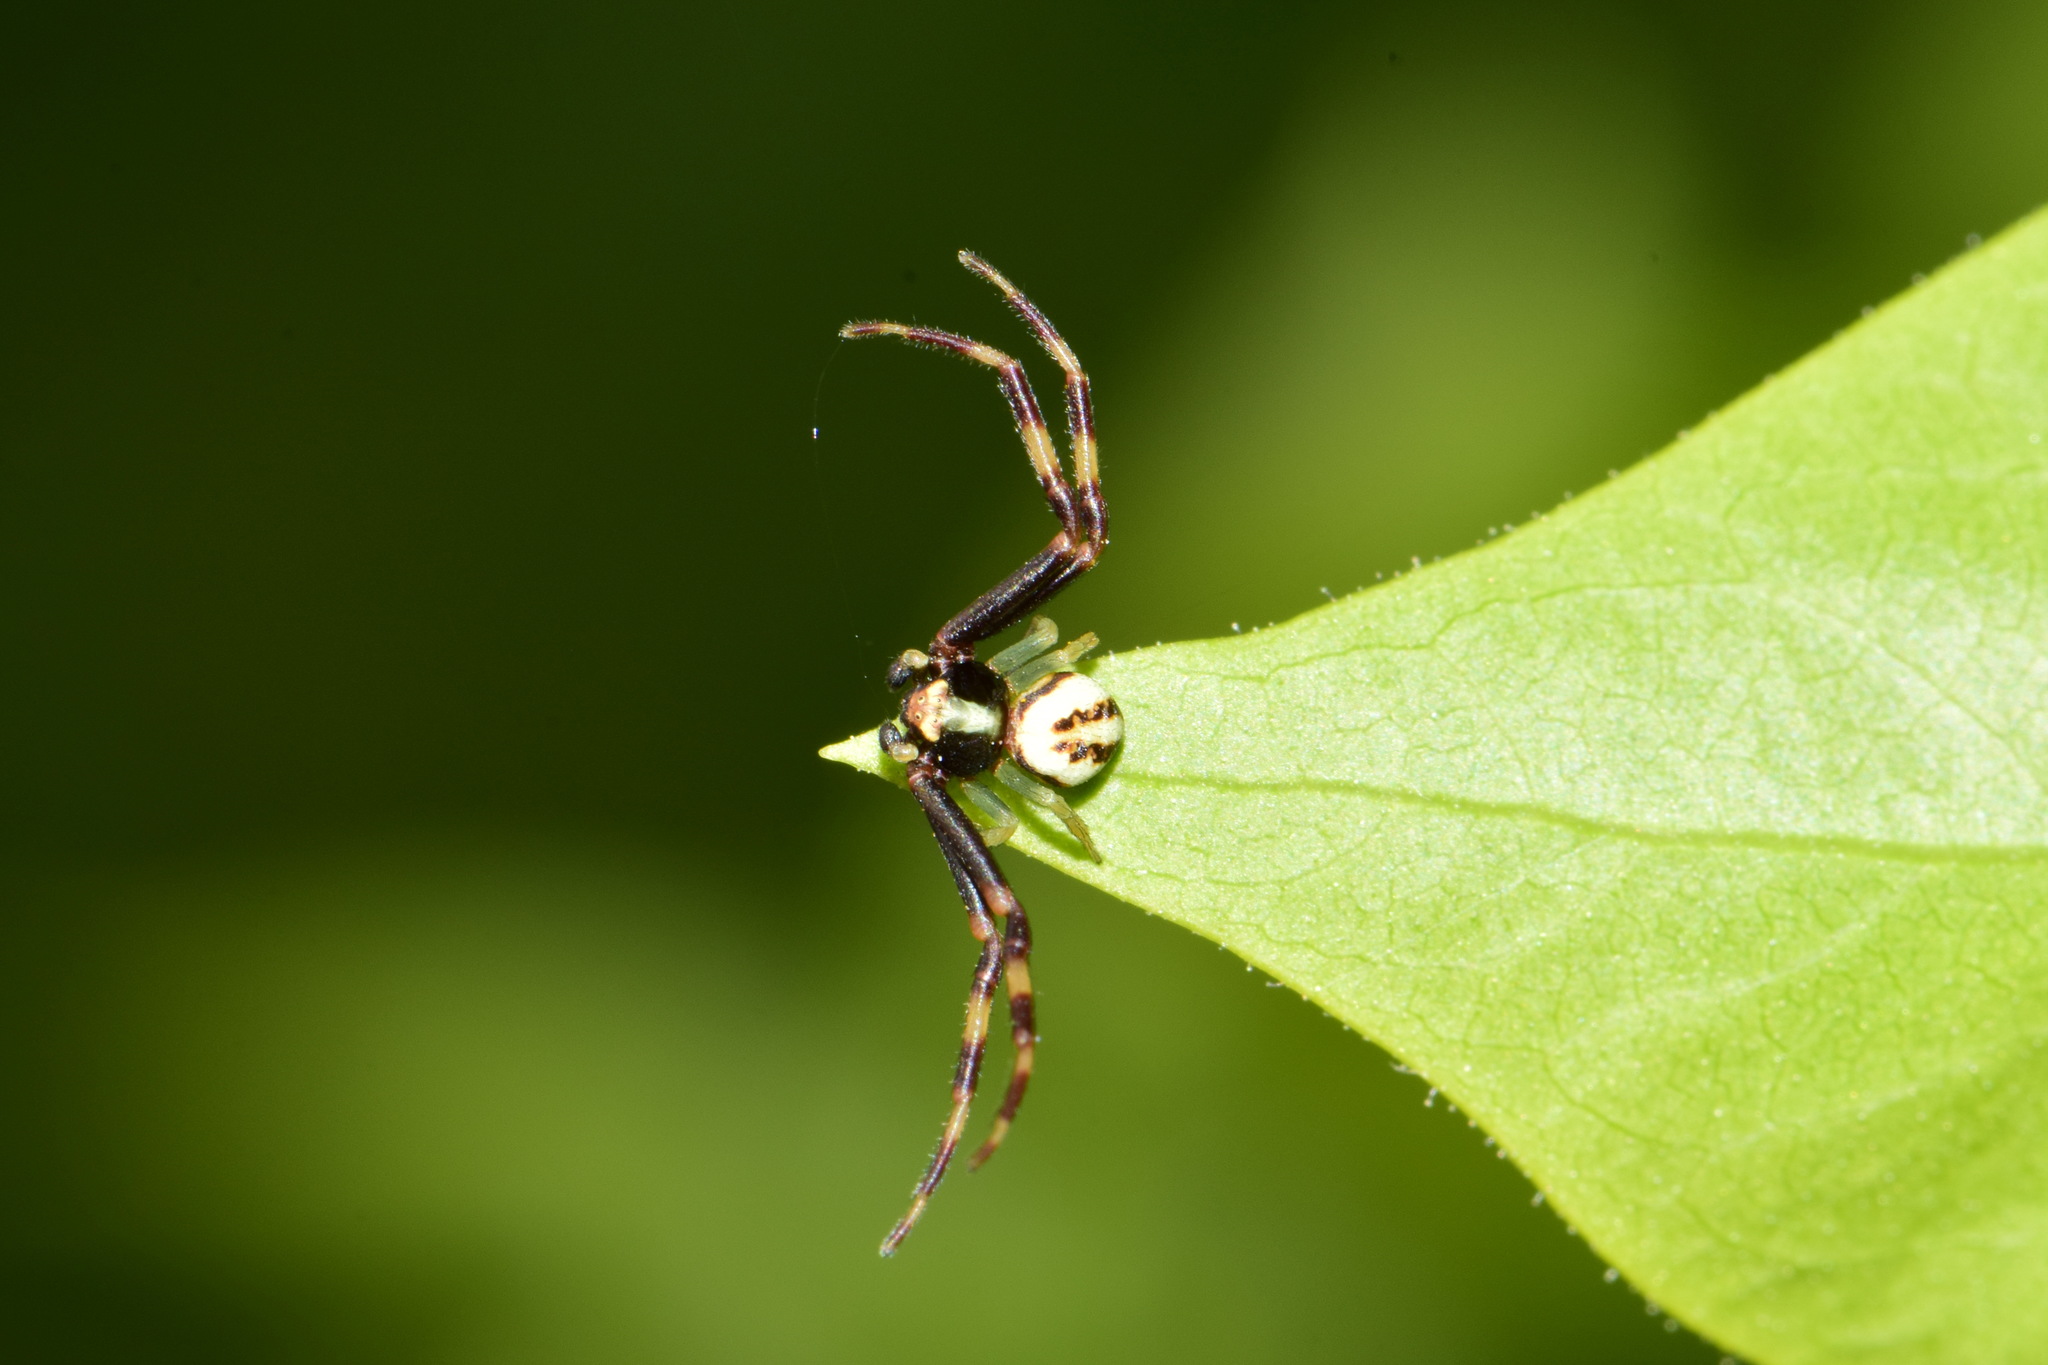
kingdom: Animalia
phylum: Arthropoda
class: Arachnida
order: Araneae
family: Thomisidae
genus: Misumena
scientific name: Misumena vatia
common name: Goldenrod crab spider
